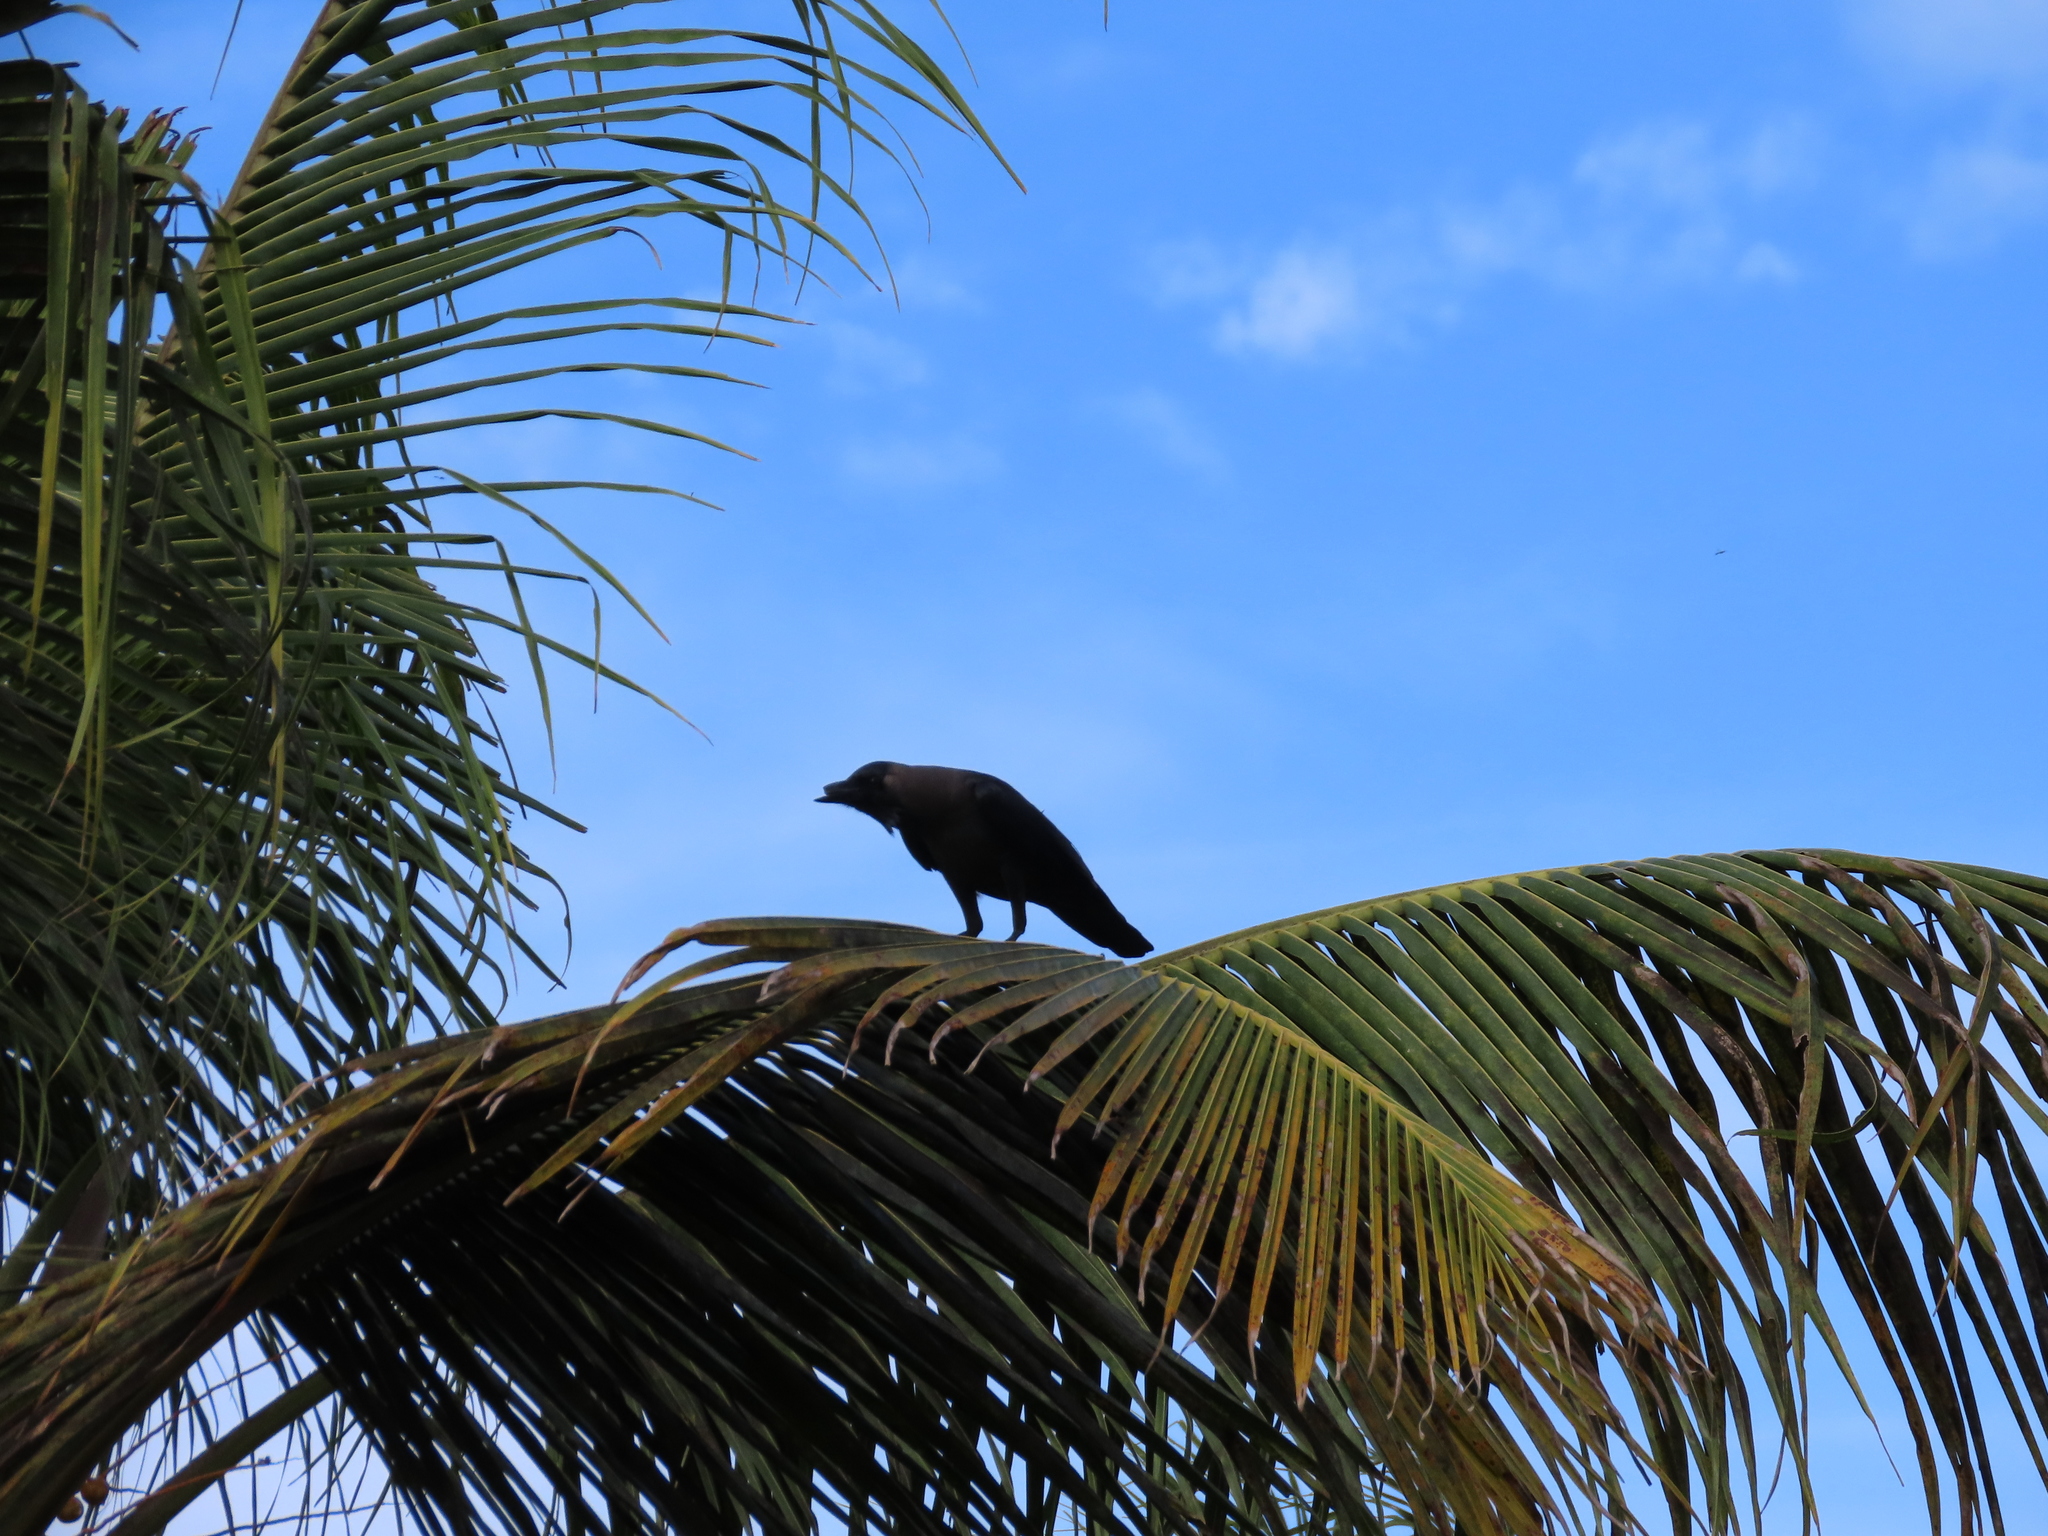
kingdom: Animalia
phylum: Chordata
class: Aves
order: Passeriformes
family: Corvidae
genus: Corvus
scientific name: Corvus splendens
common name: House crow
